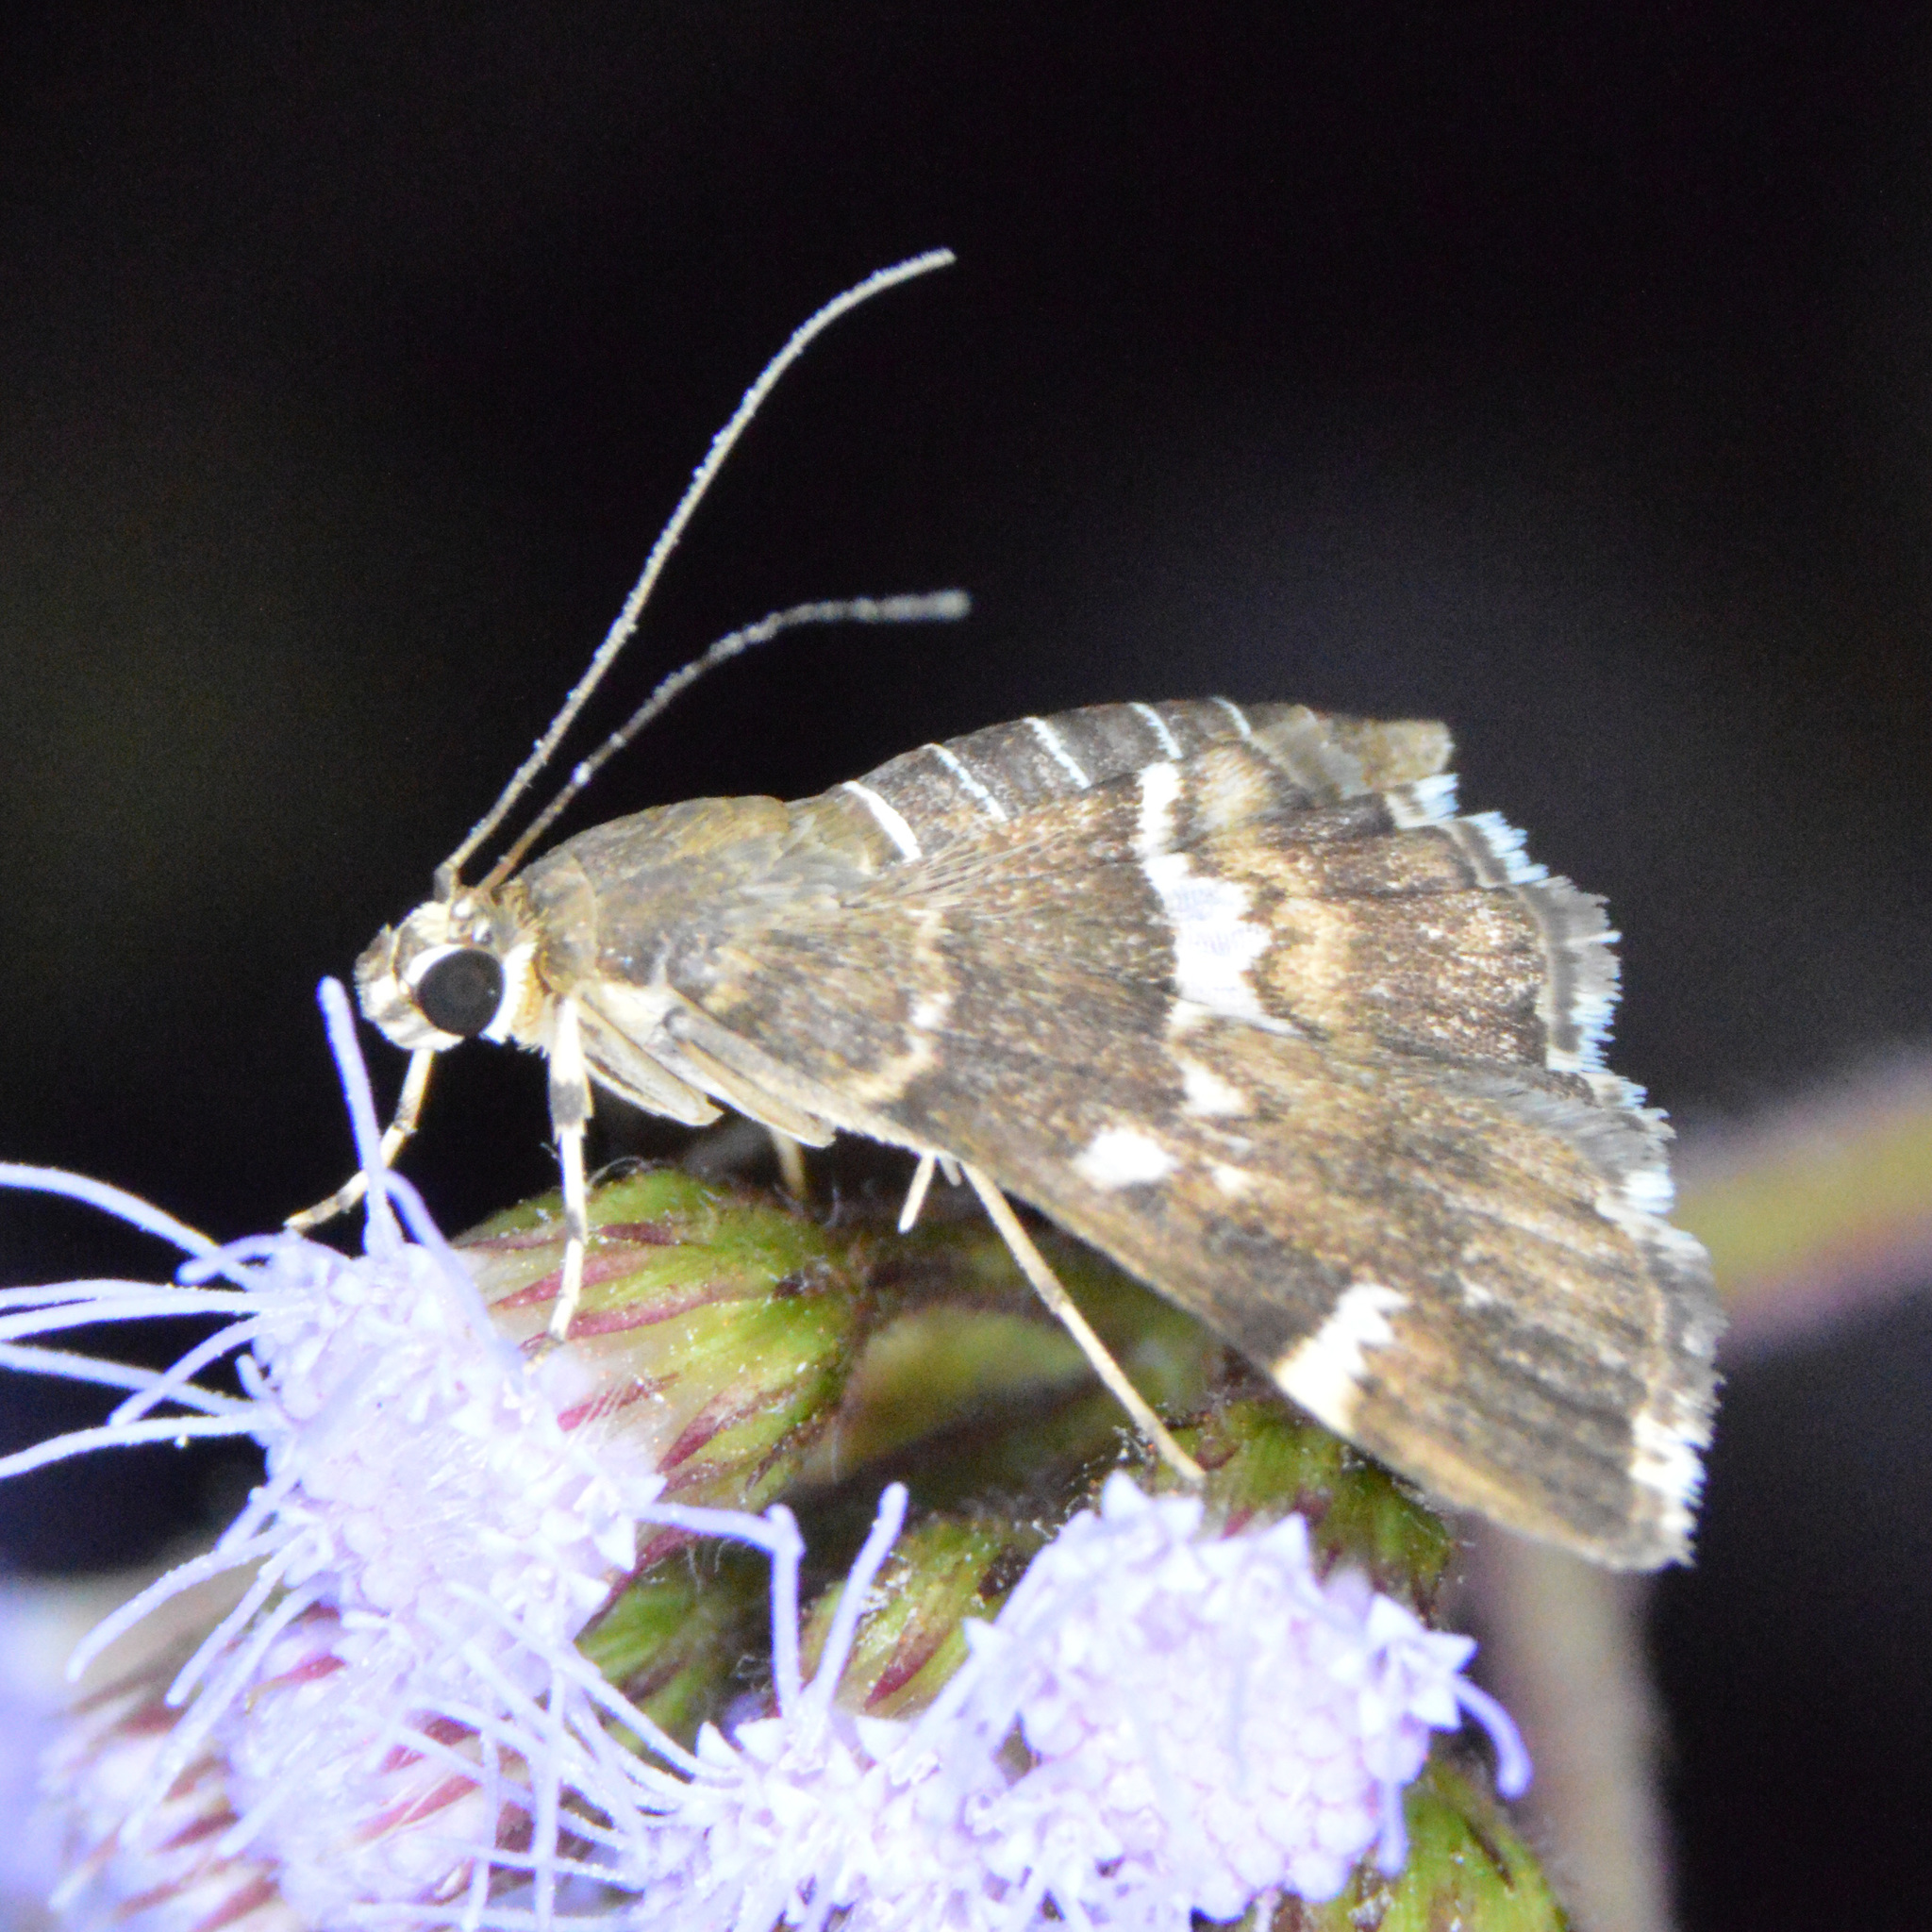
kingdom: Animalia
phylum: Arthropoda
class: Insecta
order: Lepidoptera
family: Crambidae
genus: Hymenia
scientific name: Hymenia perspectalis
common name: Spotted beet webworm
